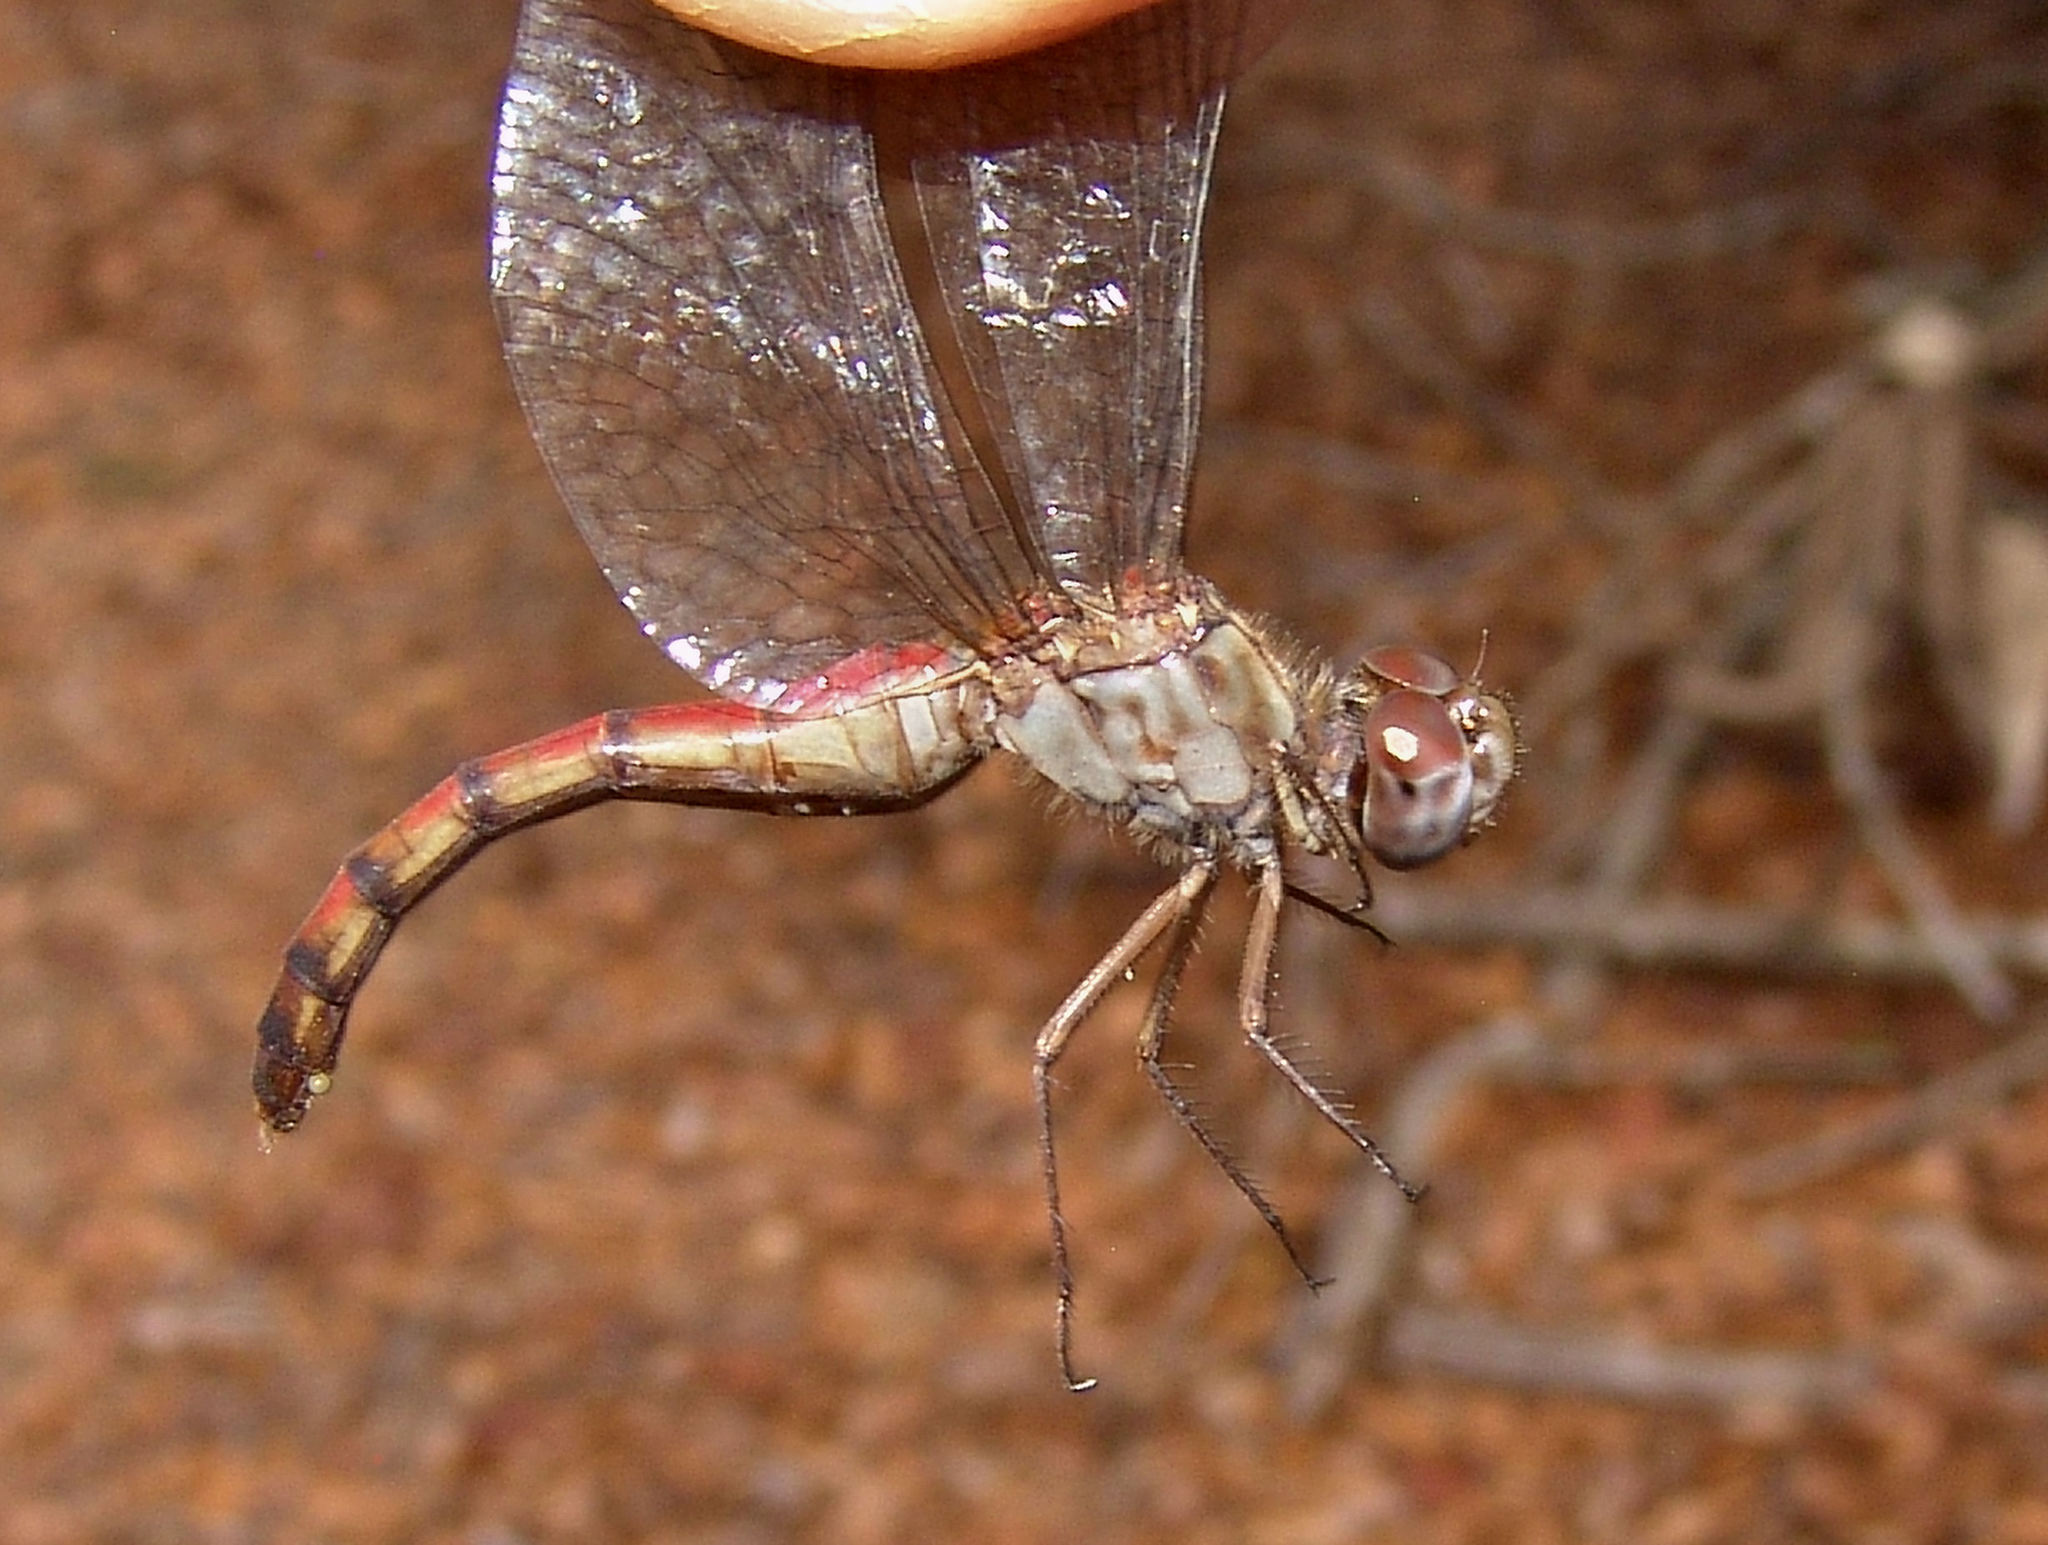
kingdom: Animalia
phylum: Arthropoda
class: Insecta
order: Odonata
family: Libellulidae
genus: Sympetrum
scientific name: Sympetrum ambiguum
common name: Blue-faced meadowhawk
